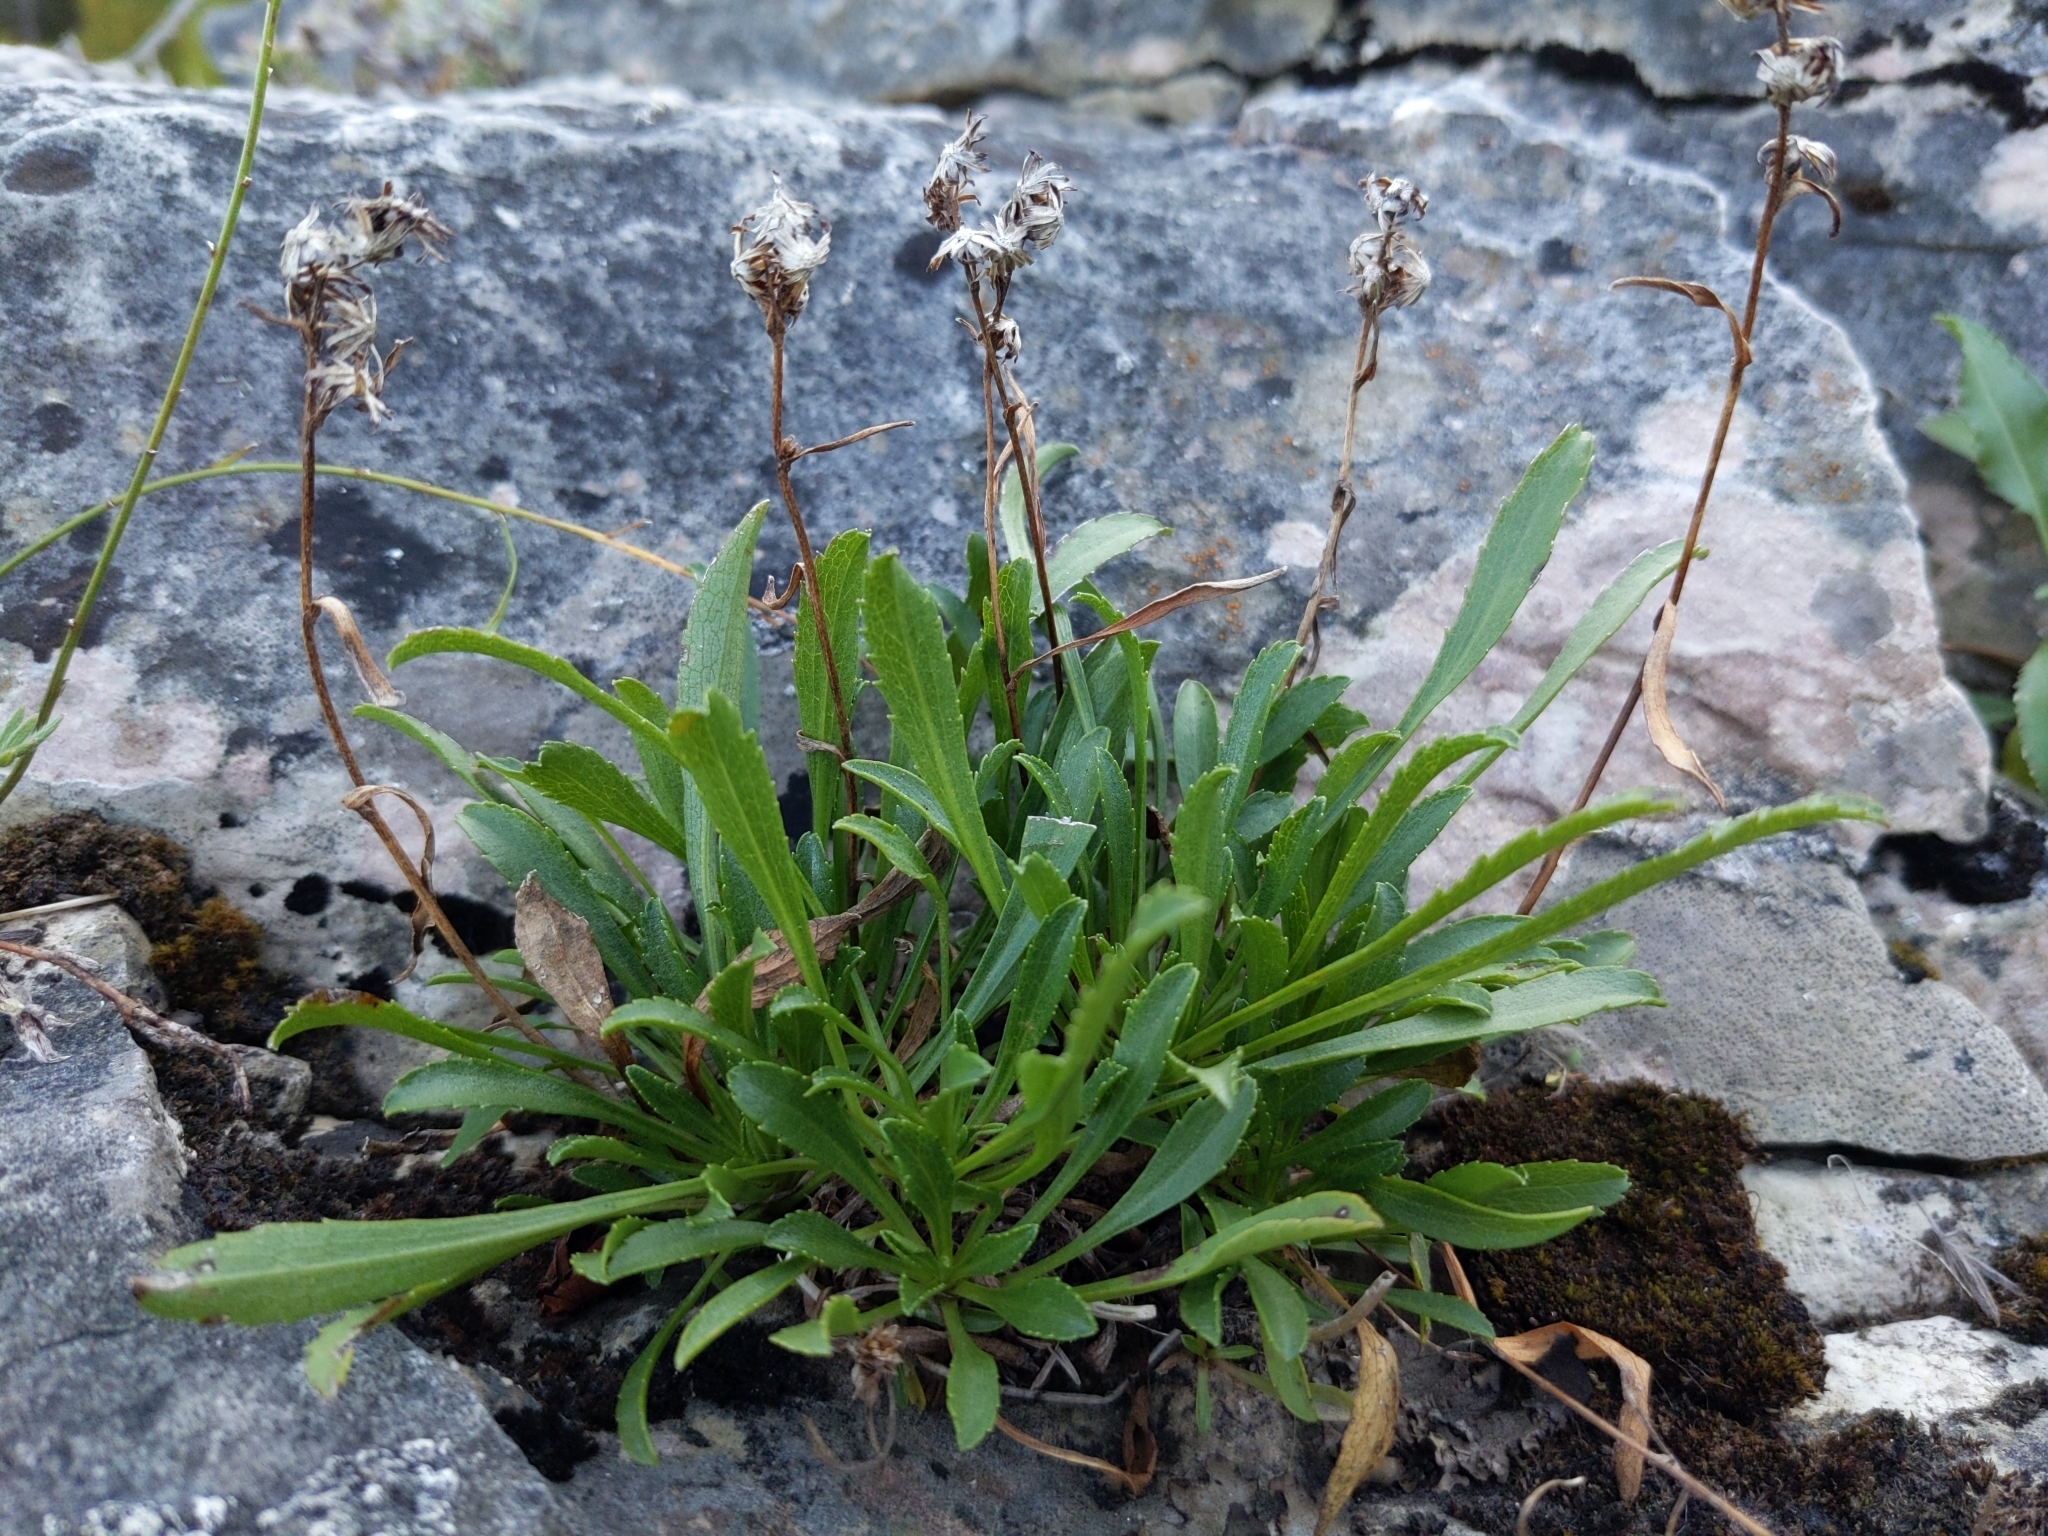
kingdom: Plantae
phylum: Tracheophyta
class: Magnoliopsida
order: Asterales
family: Asteraceae
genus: Solidago
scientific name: Solidago ontarioensis
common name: Ontario goldenrod
